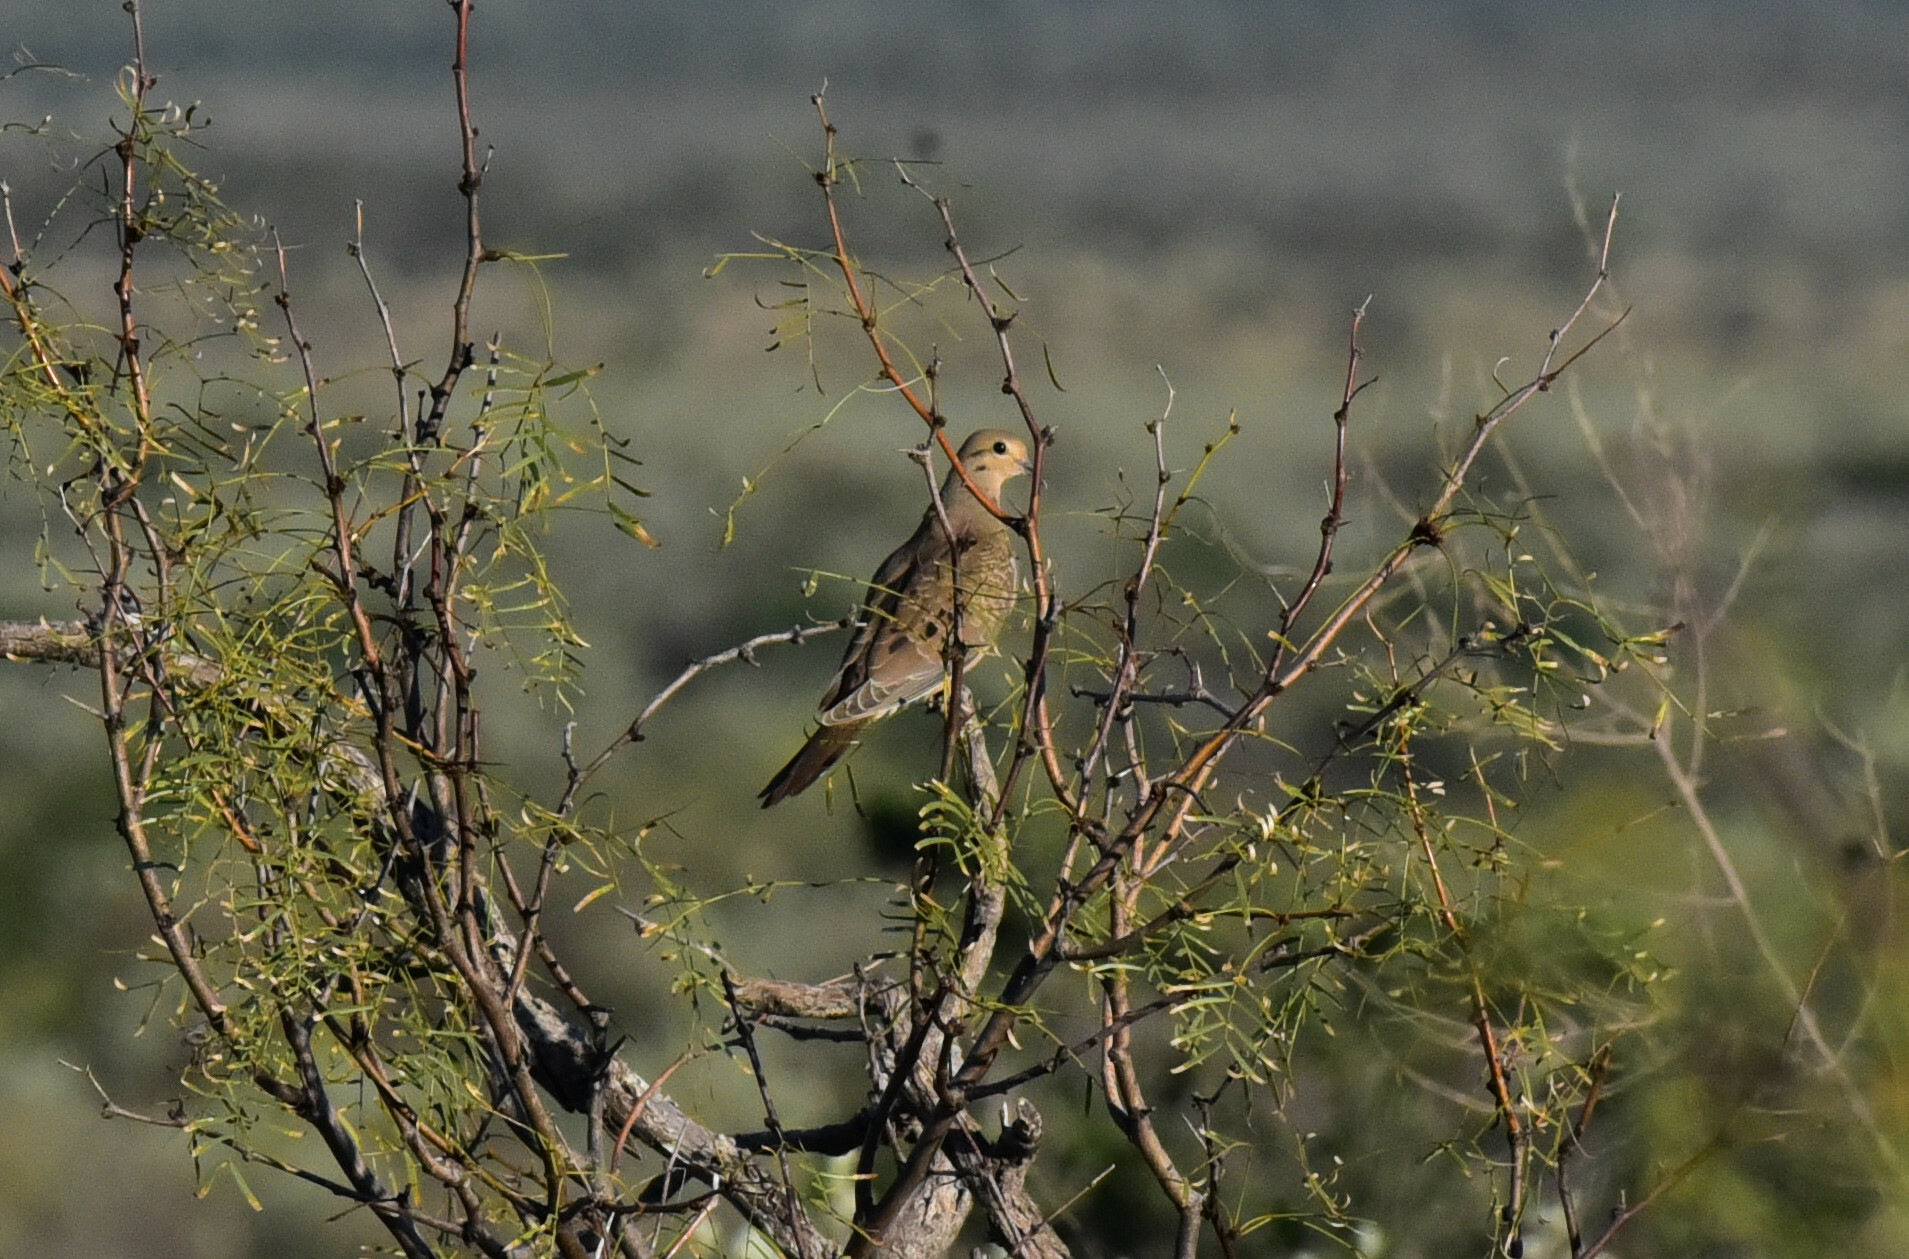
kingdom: Animalia
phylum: Chordata
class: Aves
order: Columbiformes
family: Columbidae
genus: Zenaida
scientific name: Zenaida macroura
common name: Mourning dove
